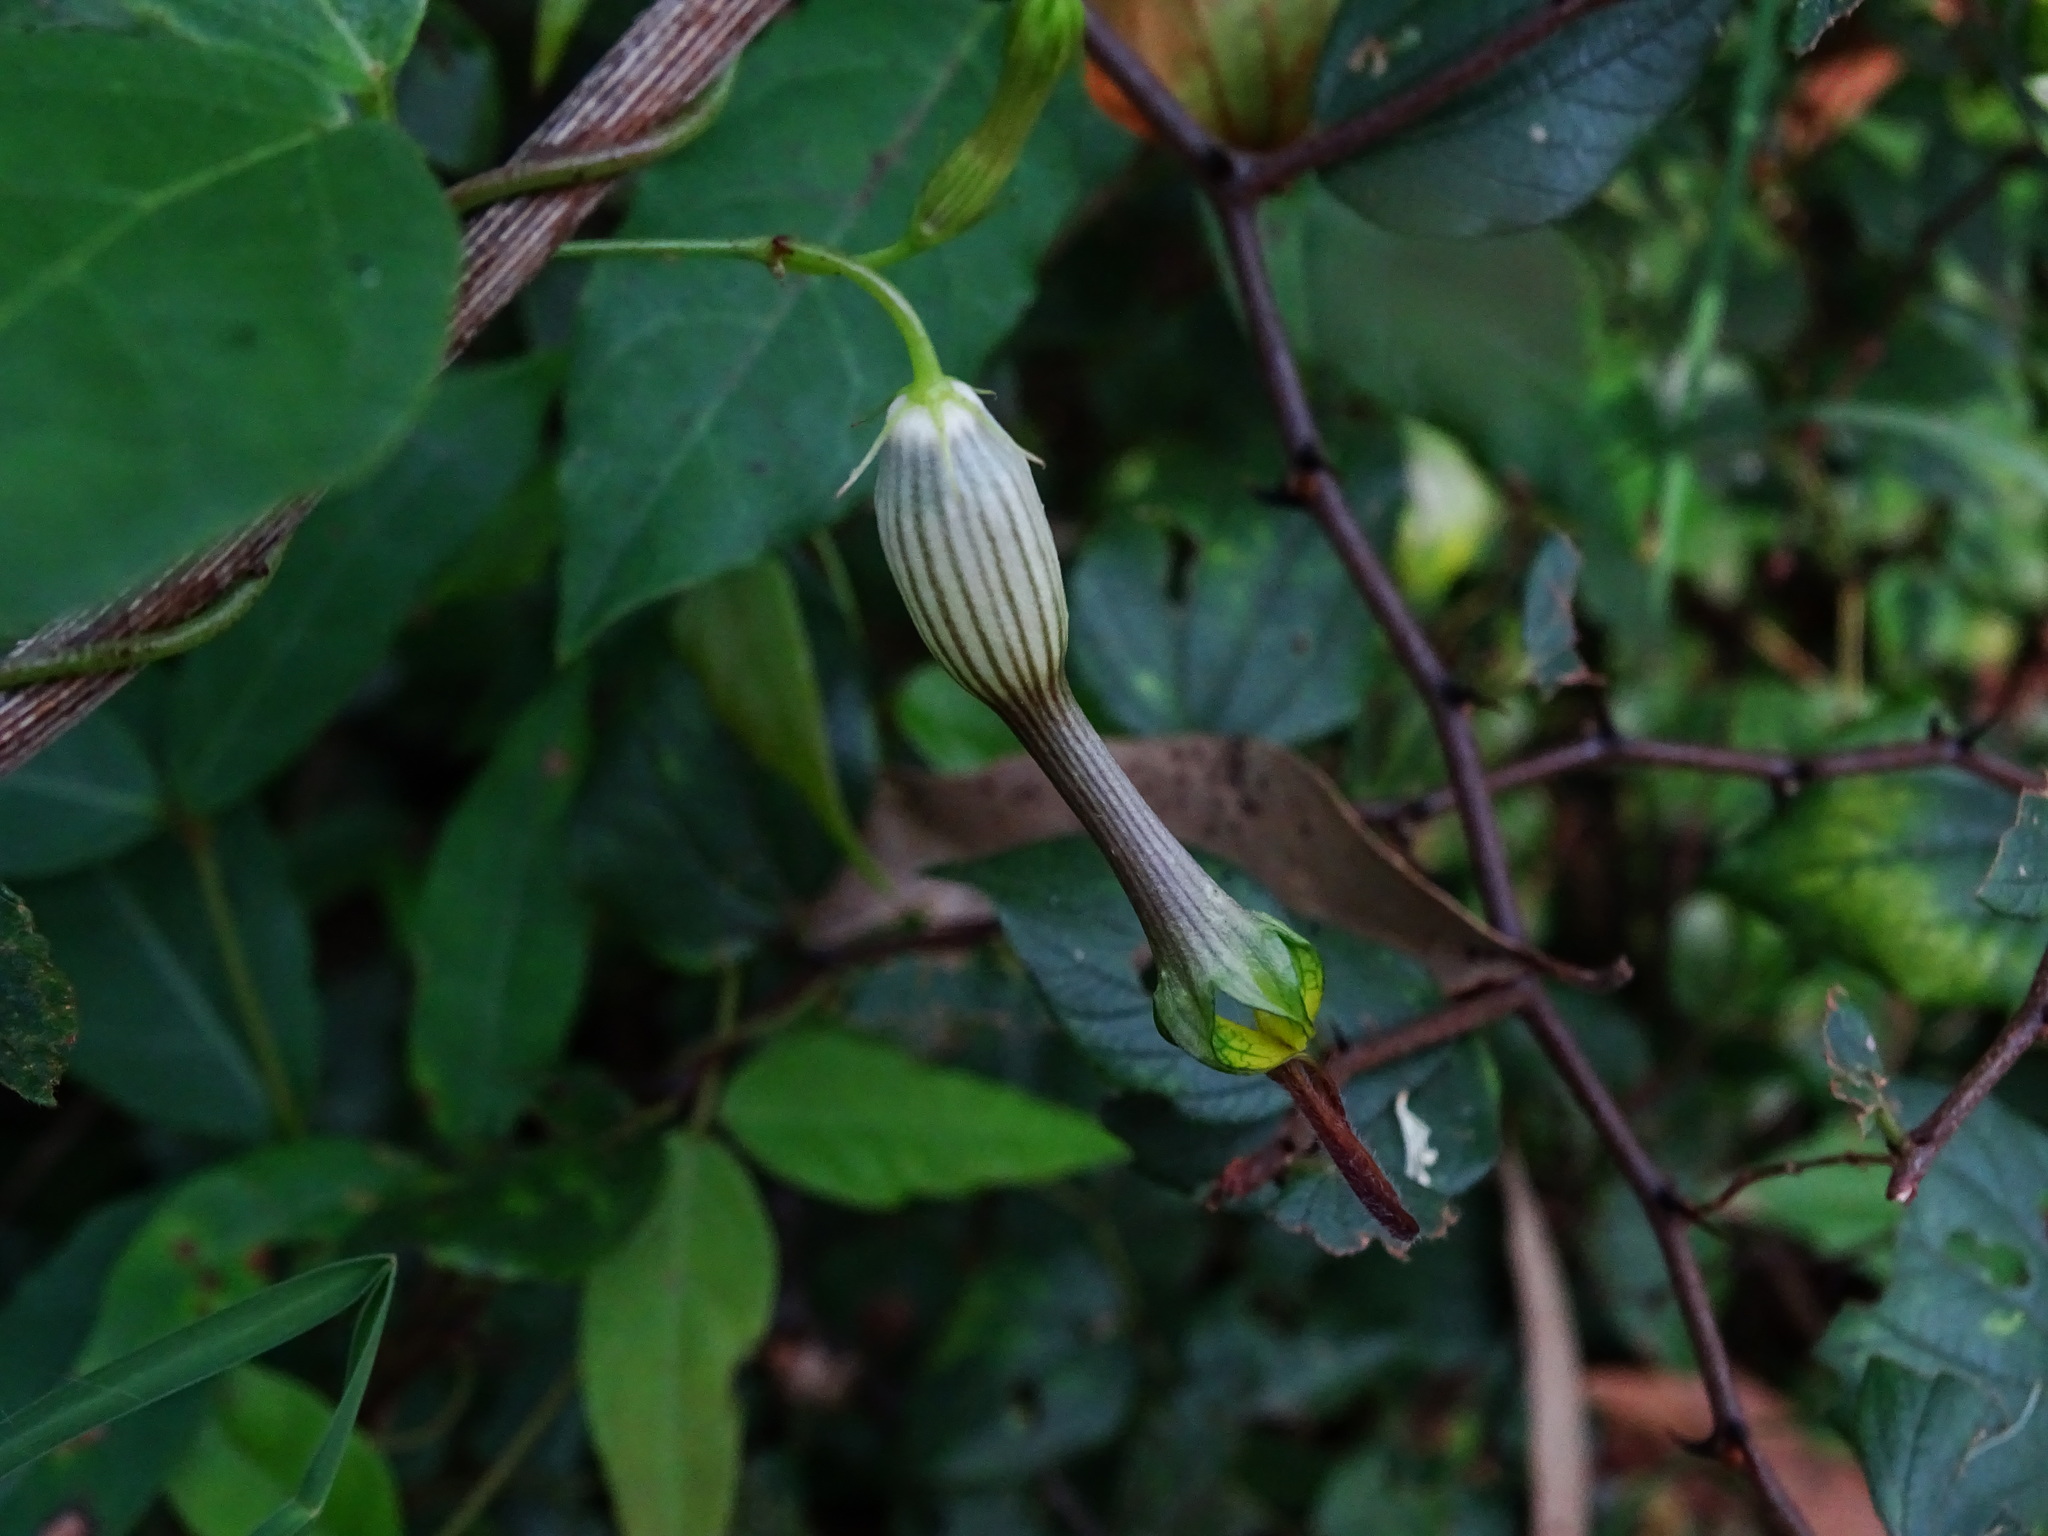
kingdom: Plantae
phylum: Tracheophyta
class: Magnoliopsida
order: Gentianales
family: Apocynaceae
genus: Ceropegia
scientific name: Ceropegia candelabrum
